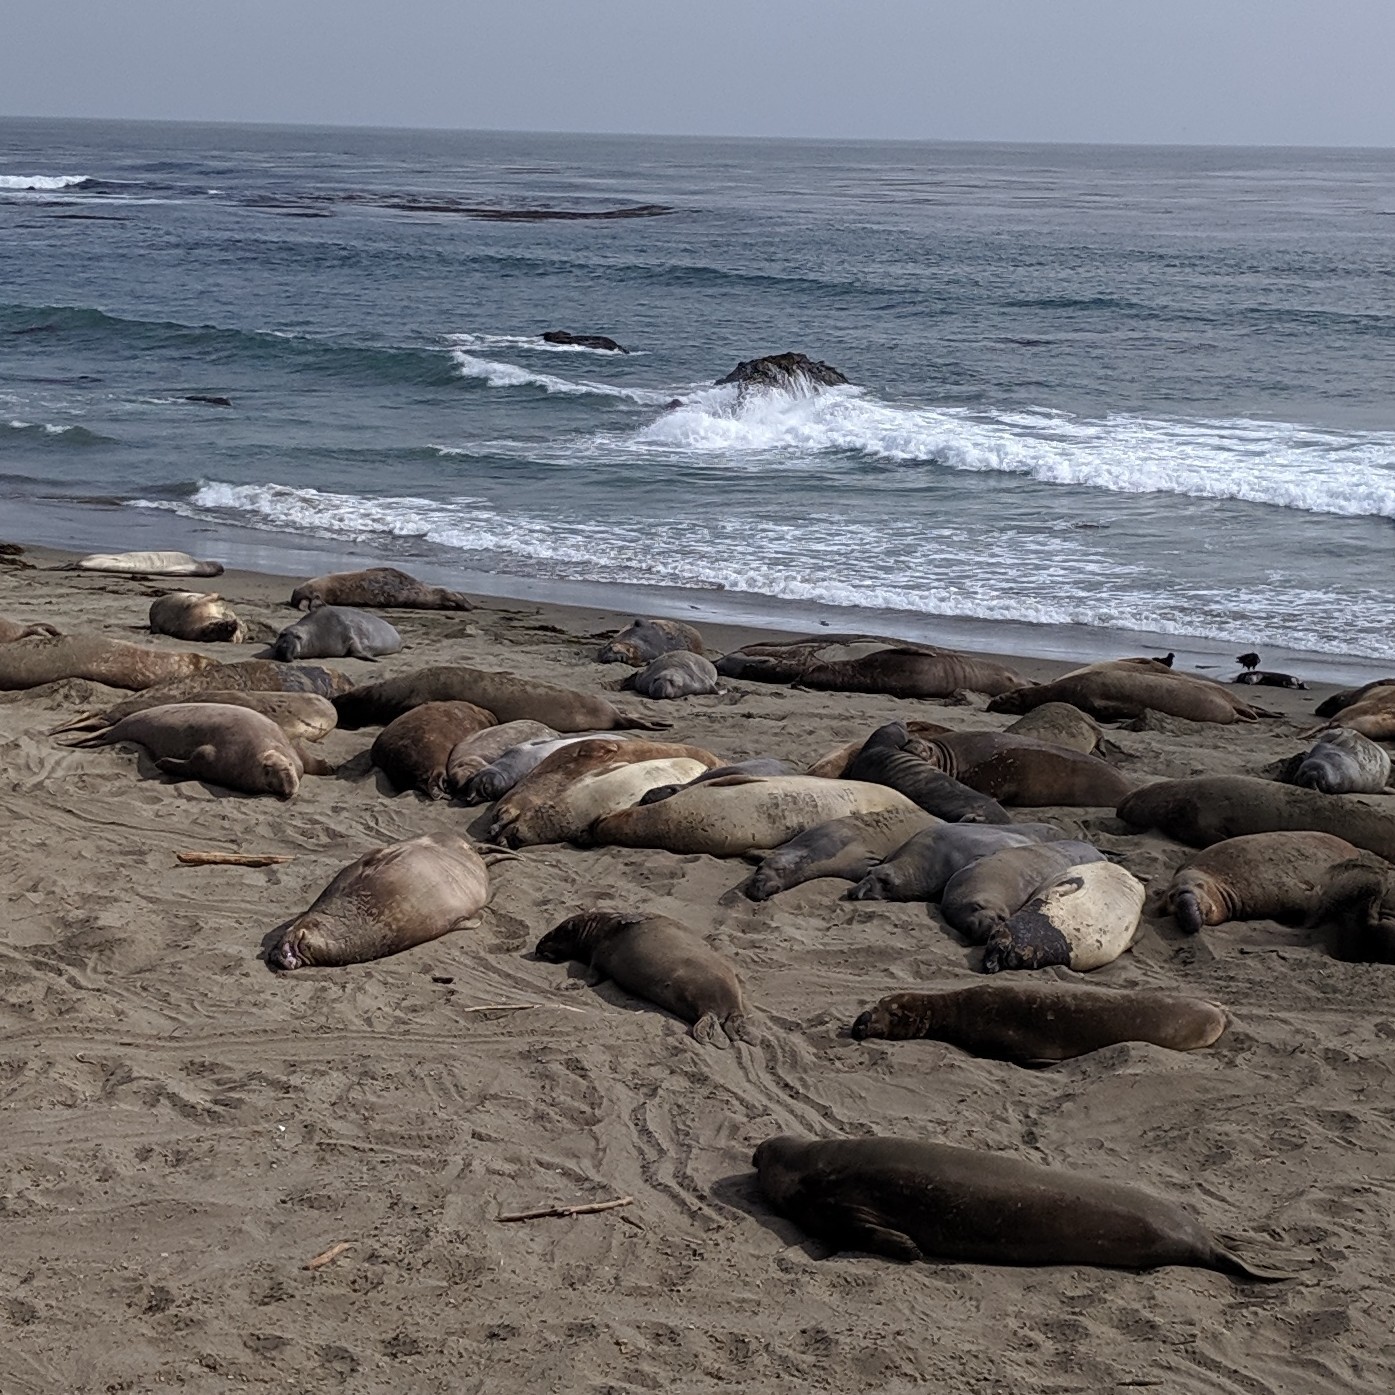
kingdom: Animalia
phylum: Chordata
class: Mammalia
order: Carnivora
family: Phocidae
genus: Mirounga
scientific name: Mirounga angustirostris
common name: Northern elephant seal
